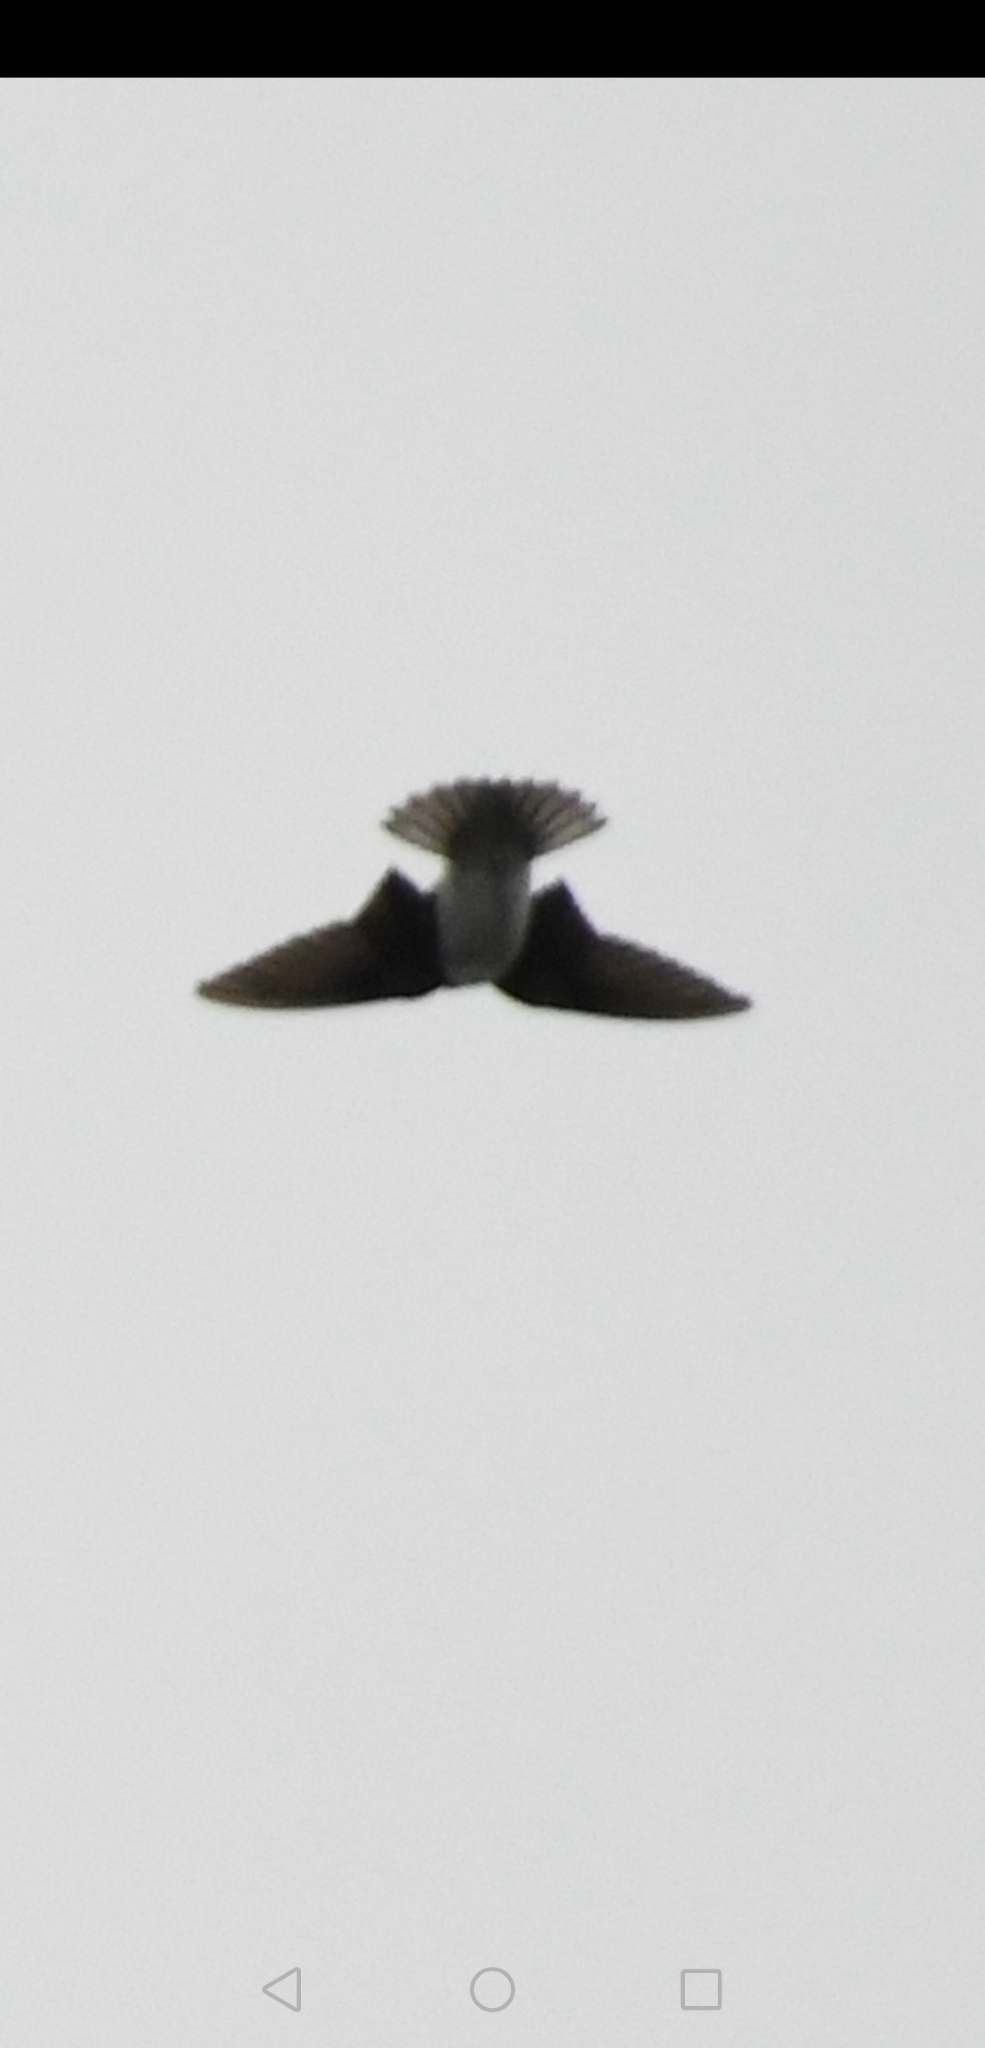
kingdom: Animalia
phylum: Chordata
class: Aves
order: Passeriformes
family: Hirundinidae
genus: Tachycineta
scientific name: Tachycineta bicolor
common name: Tree swallow
